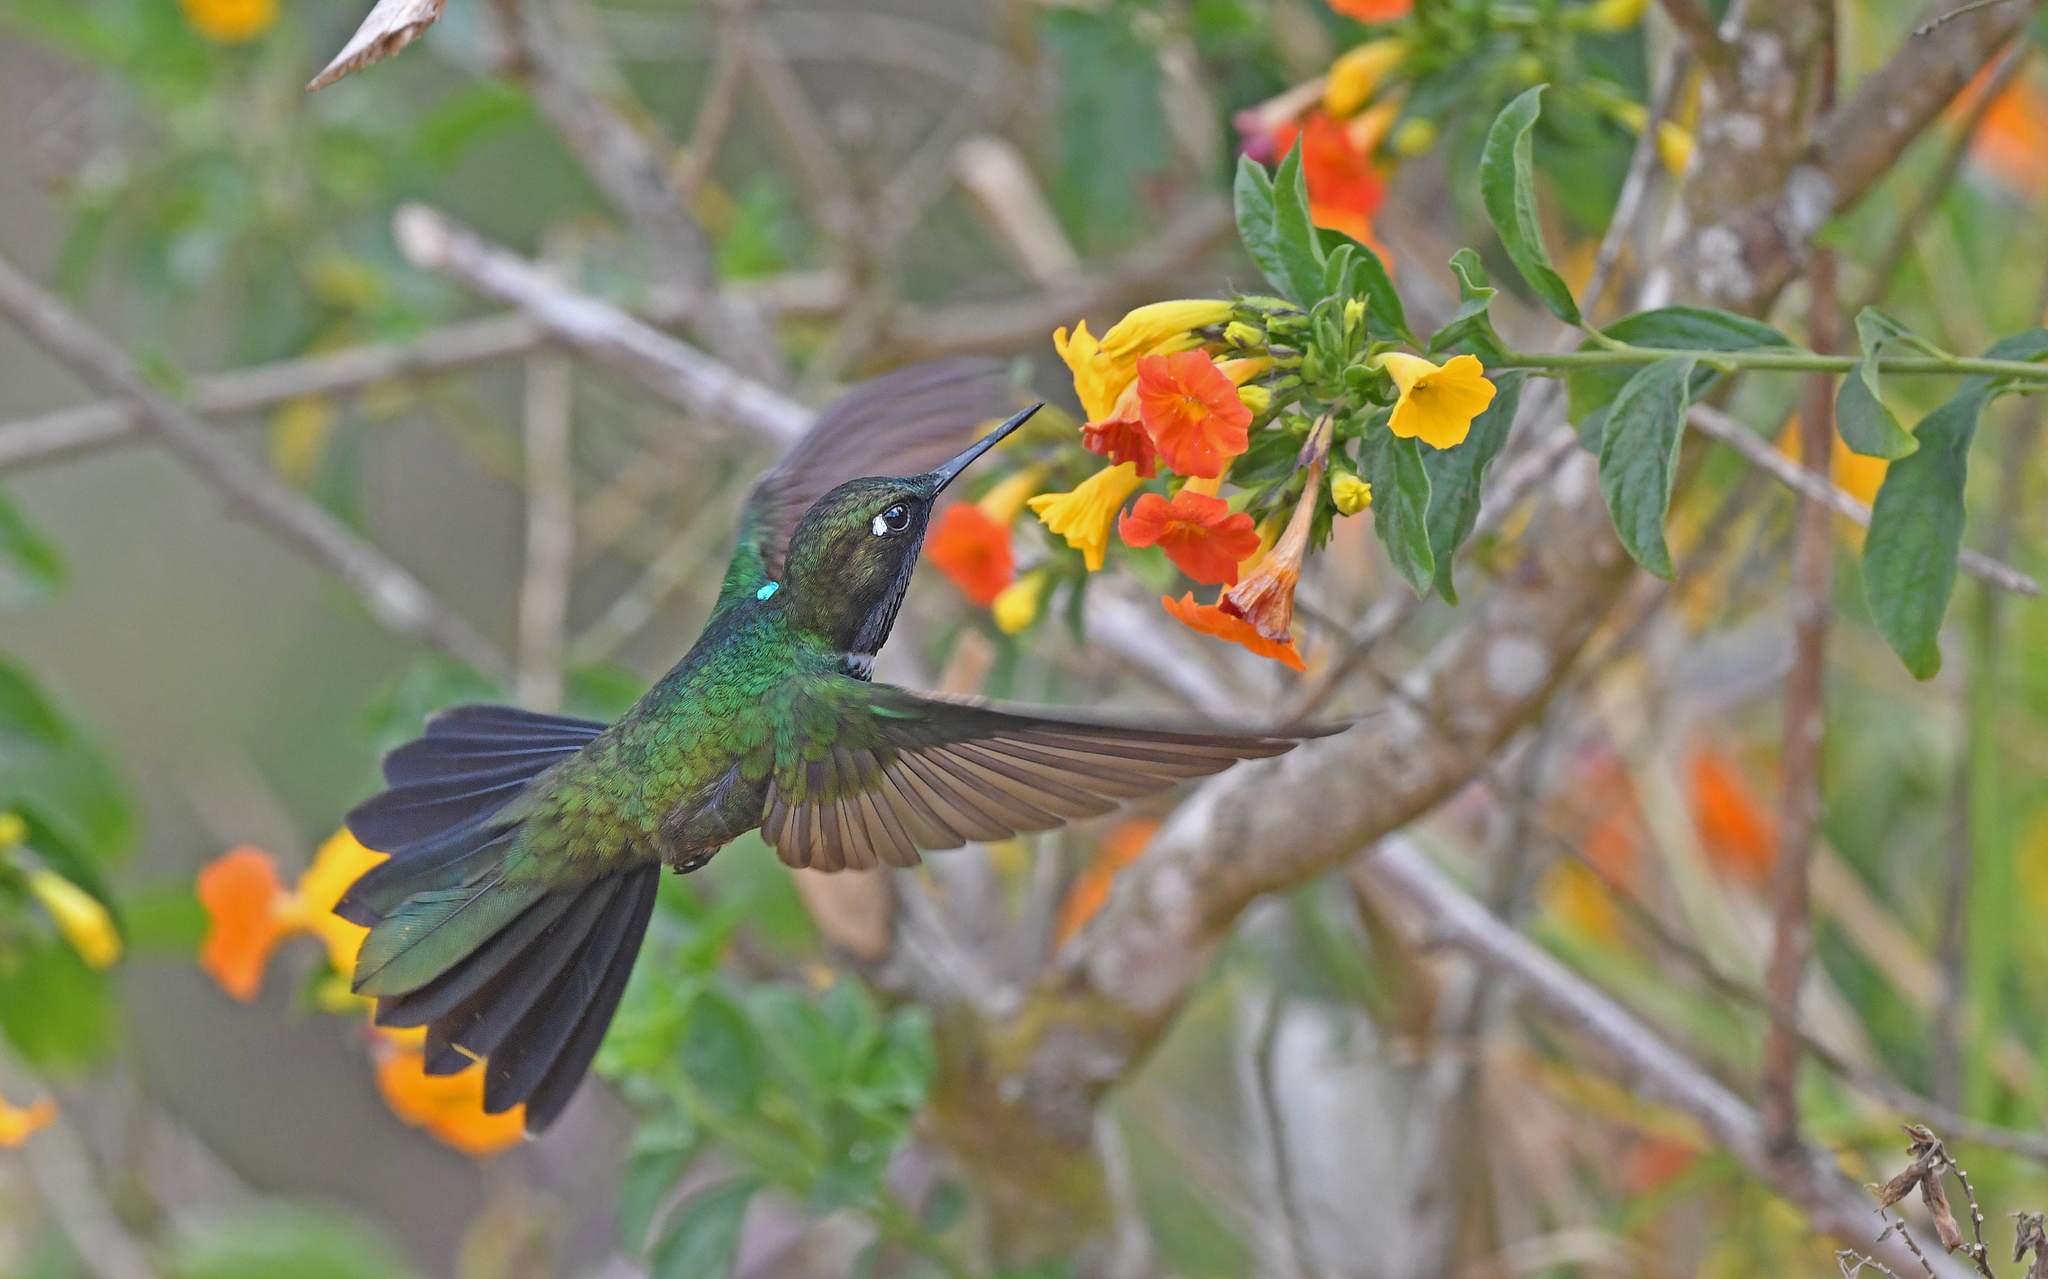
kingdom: Animalia
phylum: Chordata
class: Aves
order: Apodiformes
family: Trochilidae
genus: Heliangelus
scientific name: Heliangelus clarisse
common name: Longuemare's sunangel
